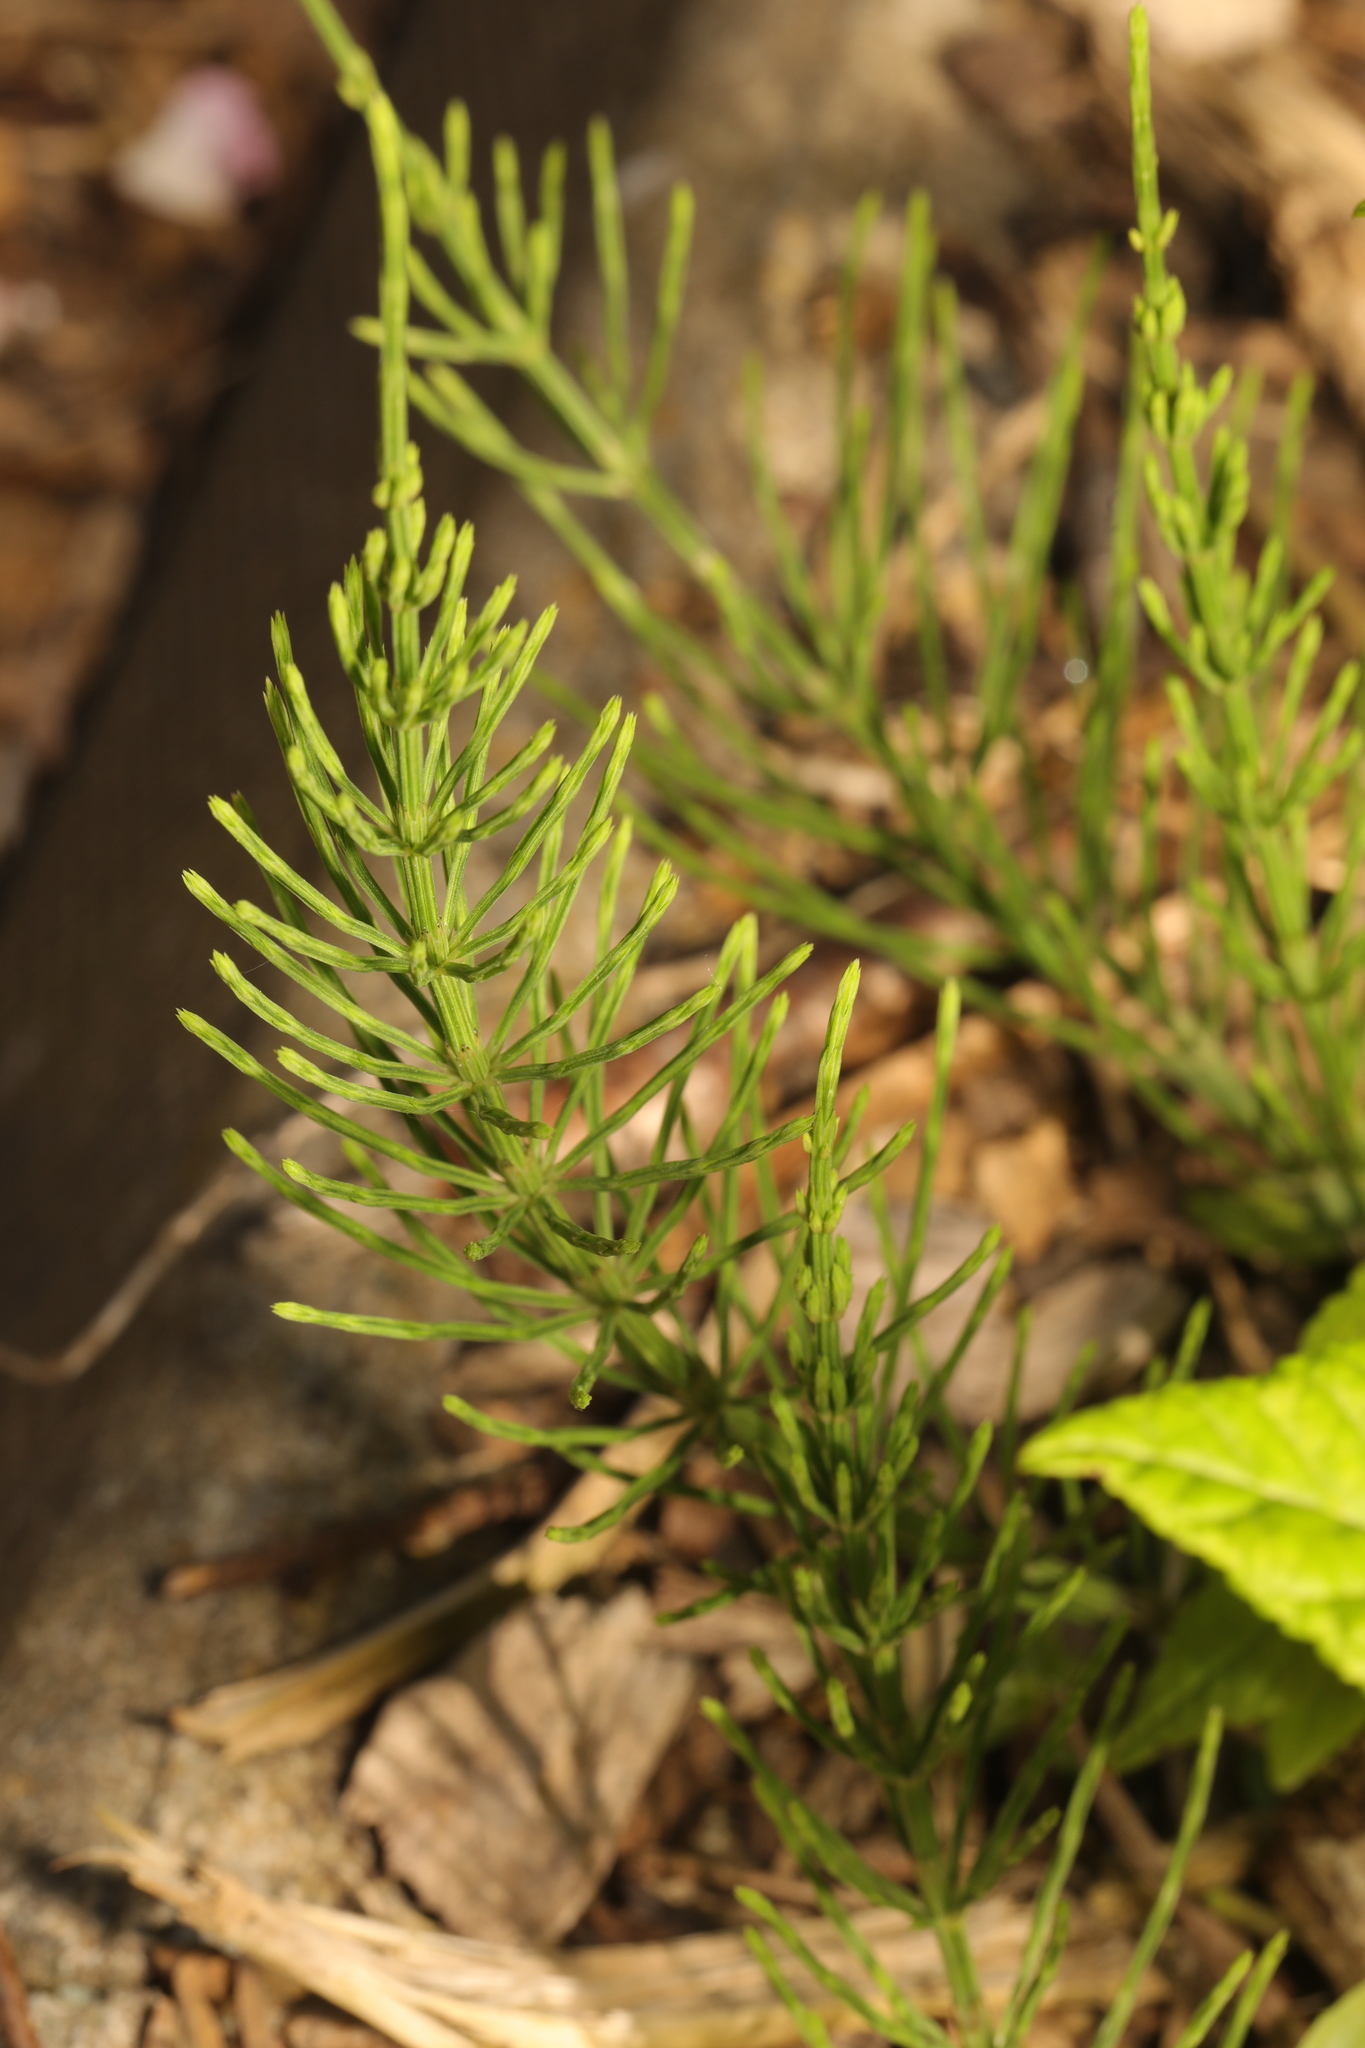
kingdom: Plantae
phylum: Tracheophyta
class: Polypodiopsida
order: Equisetales
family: Equisetaceae
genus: Equisetum
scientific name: Equisetum arvense
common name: Field horsetail
